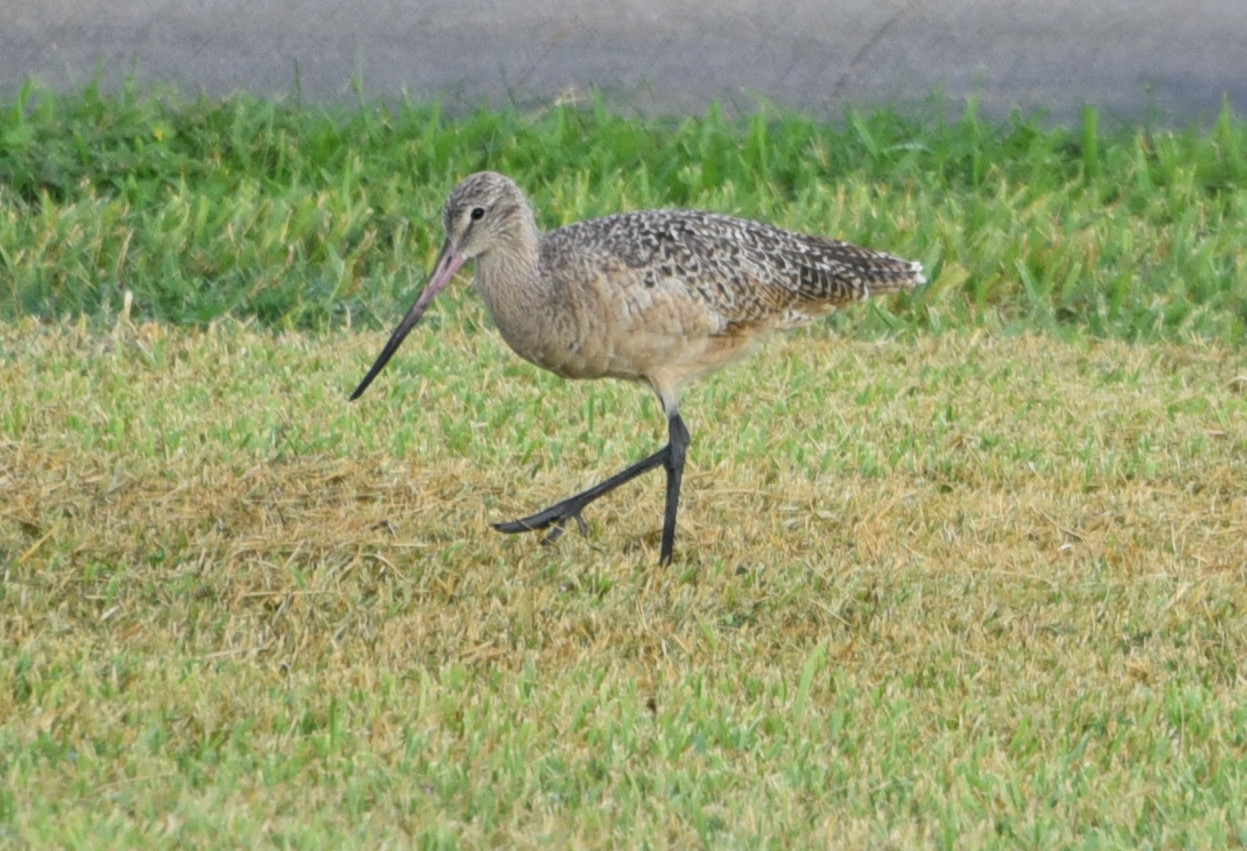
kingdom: Animalia
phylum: Chordata
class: Aves
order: Charadriiformes
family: Scolopacidae
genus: Limosa
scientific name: Limosa fedoa
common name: Marbled godwit
